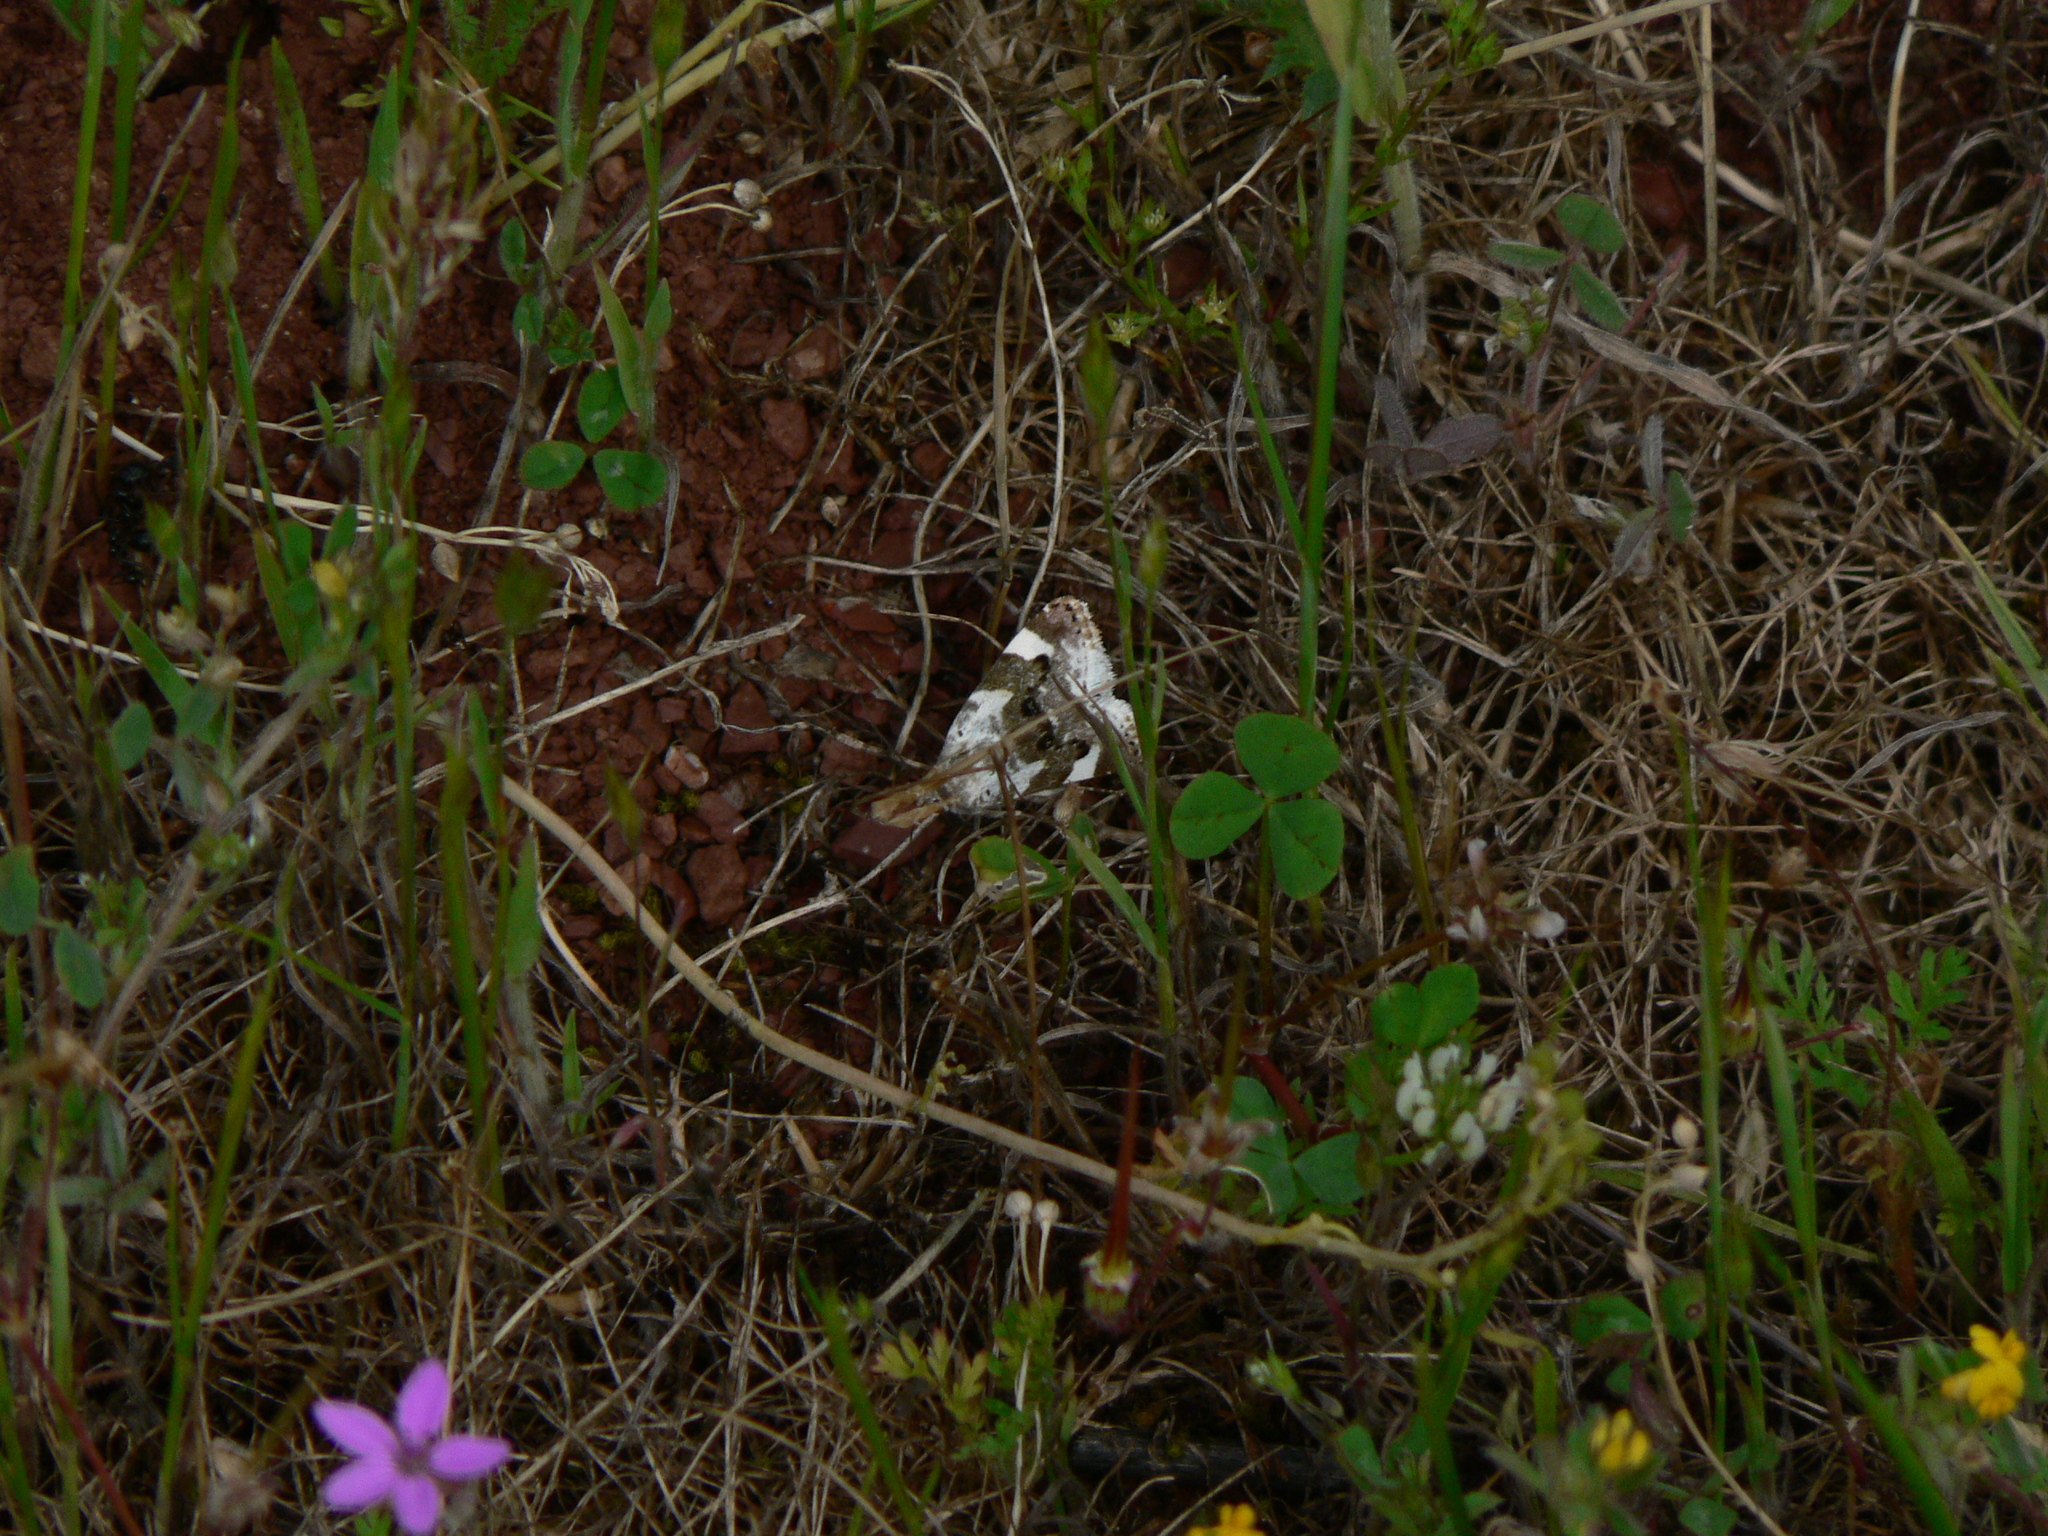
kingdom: Animalia
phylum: Arthropoda
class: Insecta
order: Lepidoptera
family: Noctuidae
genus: Acontia
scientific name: Acontia lucida
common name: Pale shoulder
